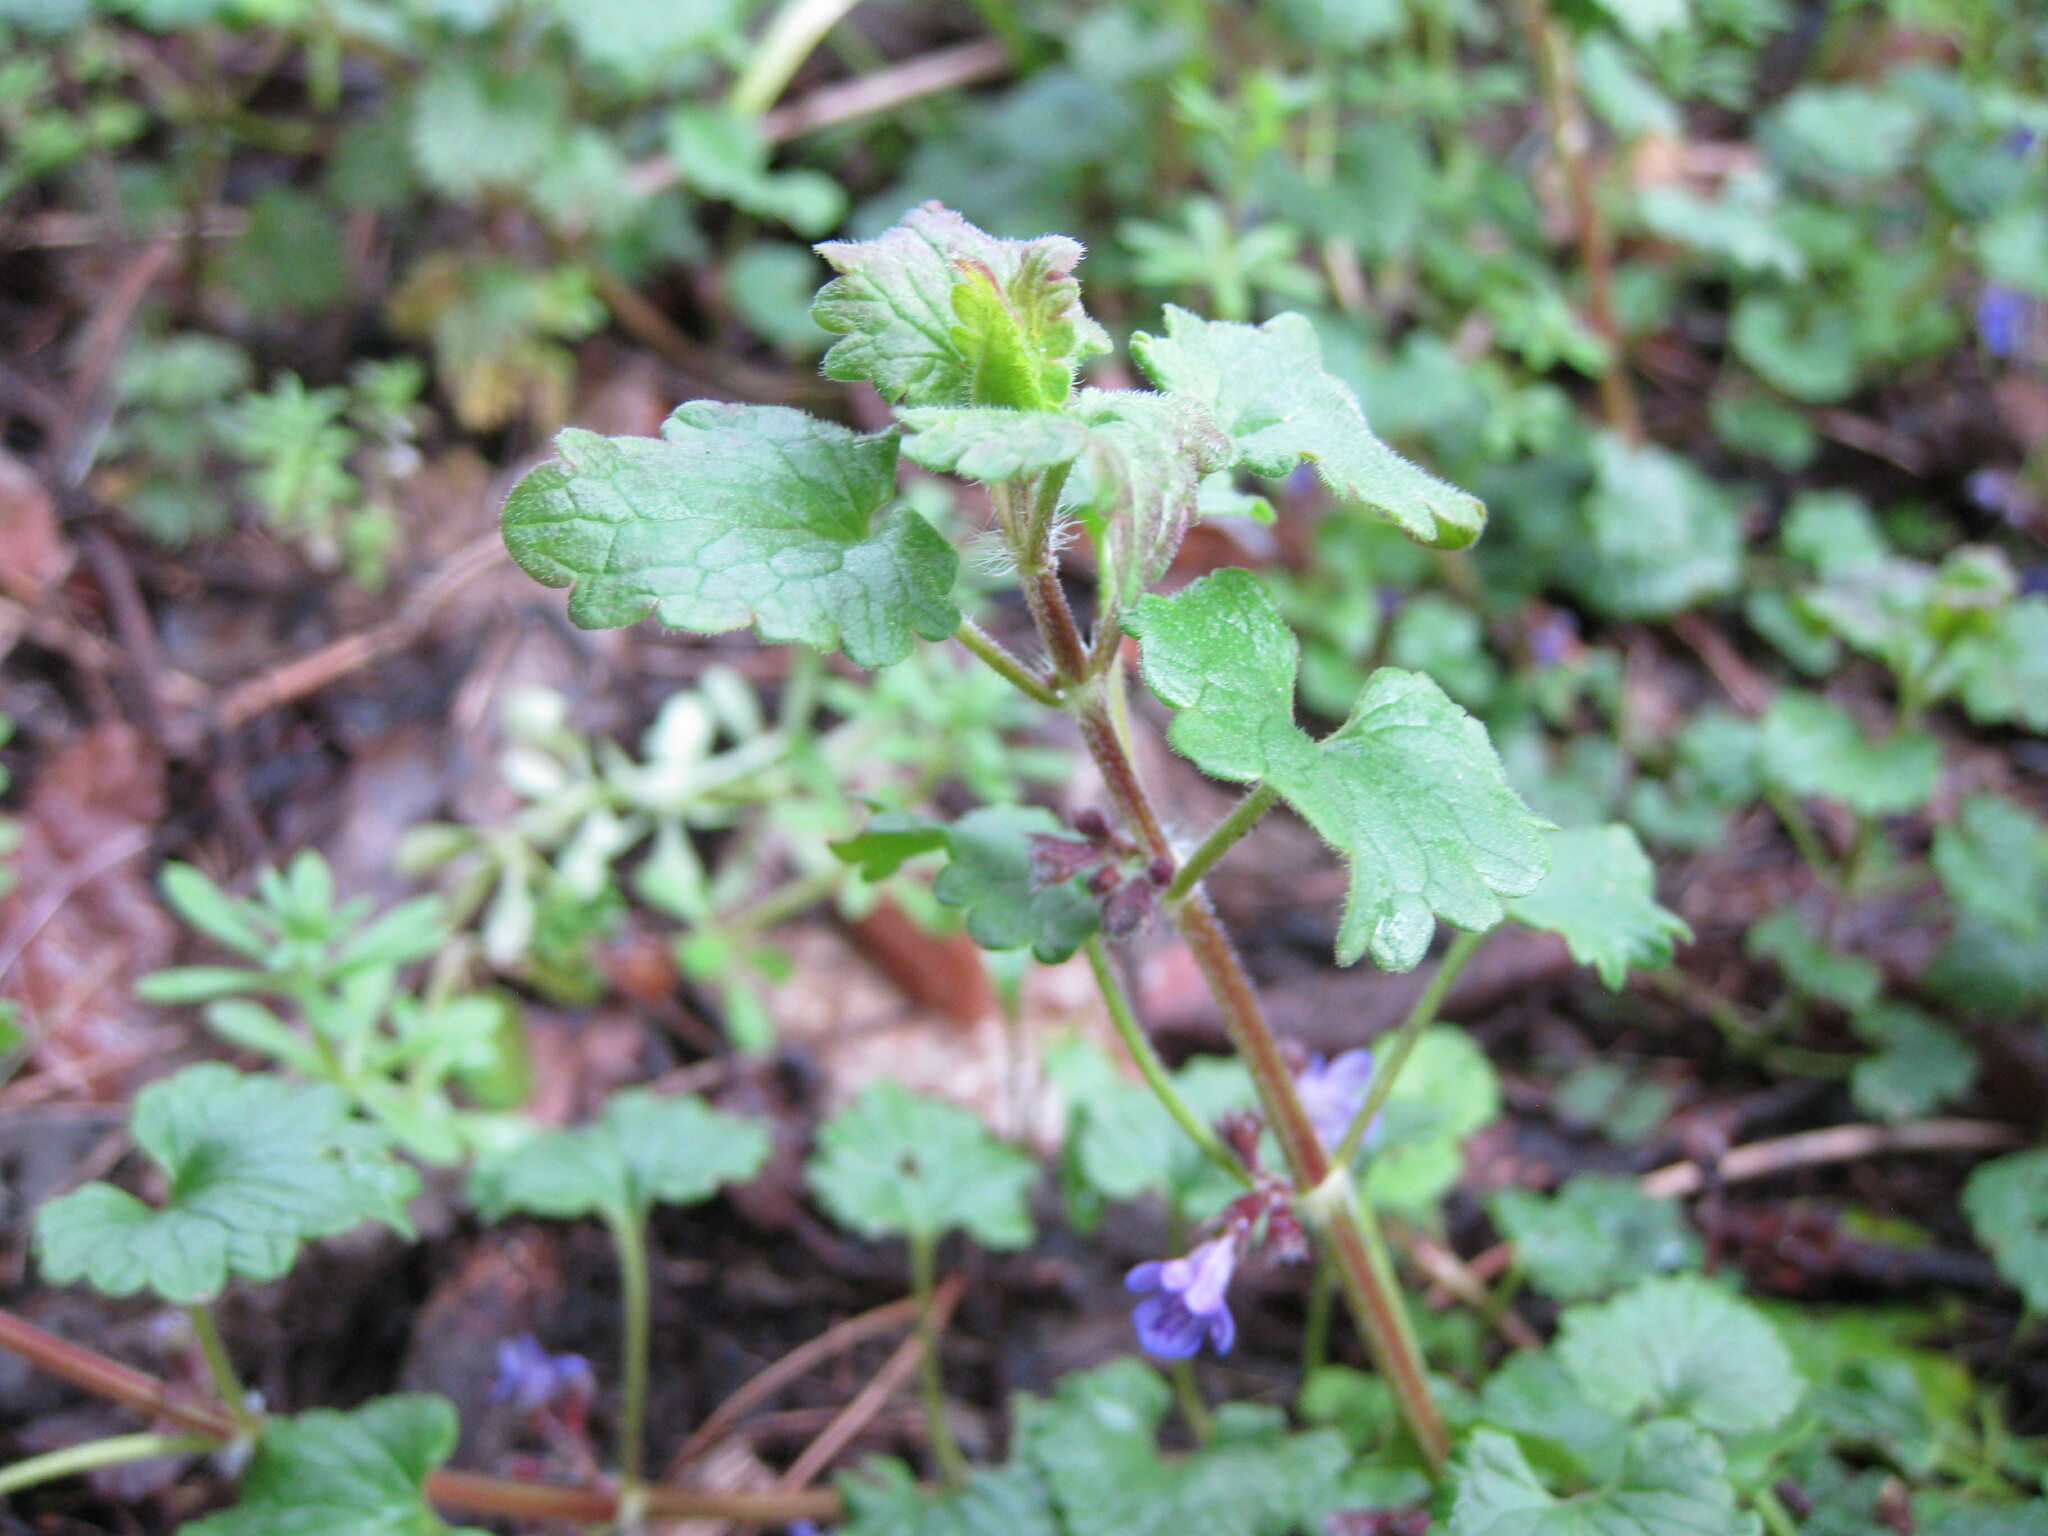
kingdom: Plantae
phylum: Tracheophyta
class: Magnoliopsida
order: Lamiales
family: Lamiaceae
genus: Glechoma
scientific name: Glechoma hederacea
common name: Ground ivy
